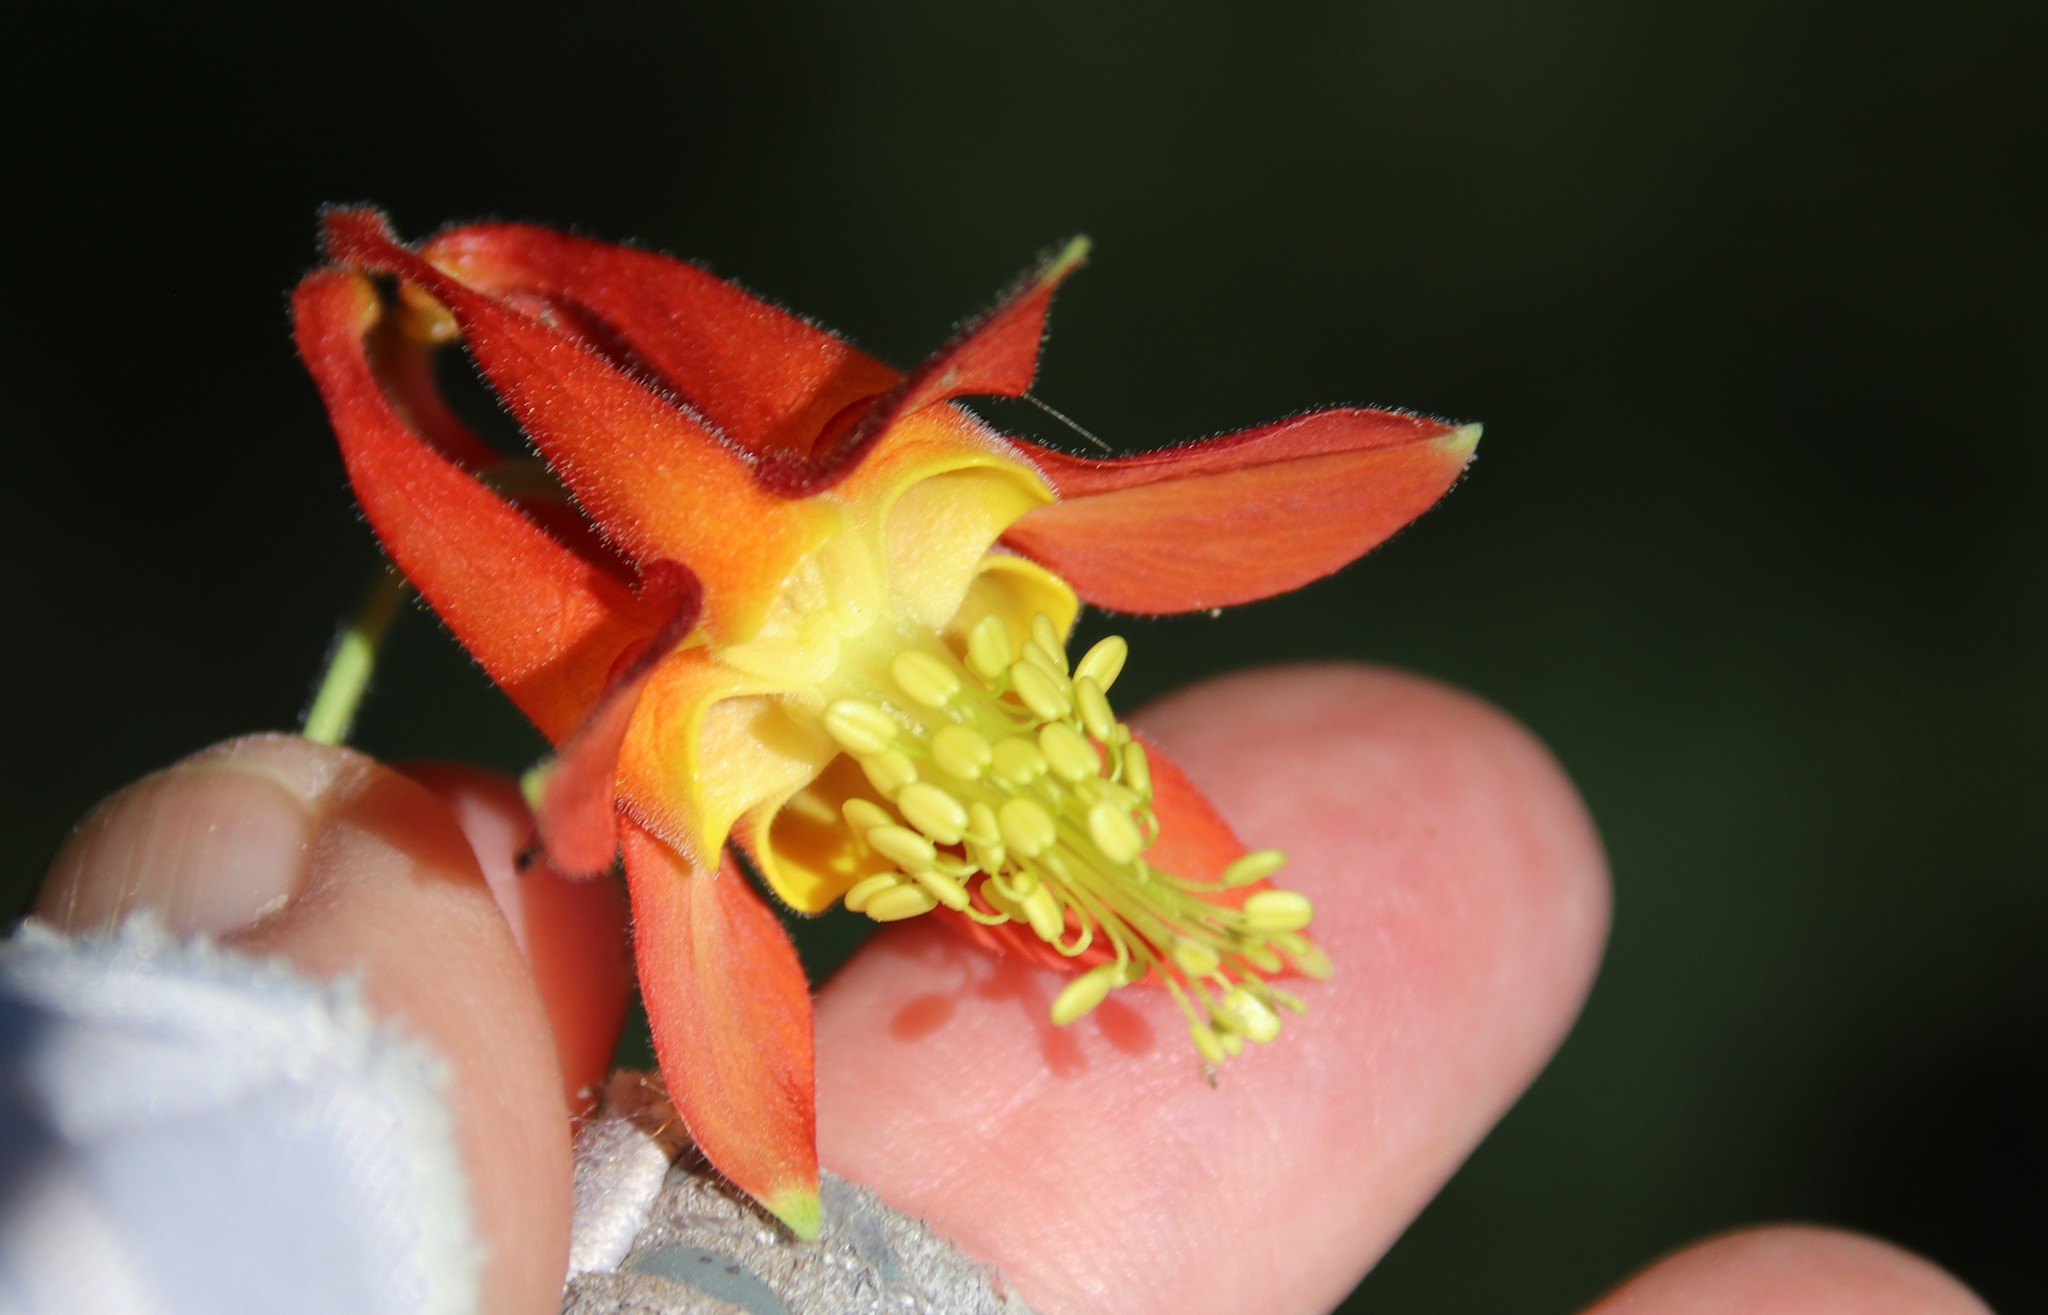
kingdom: Plantae
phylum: Tracheophyta
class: Magnoliopsida
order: Ranunculales
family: Ranunculaceae
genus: Aquilegia
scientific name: Aquilegia formosa
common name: Sitka columbine
